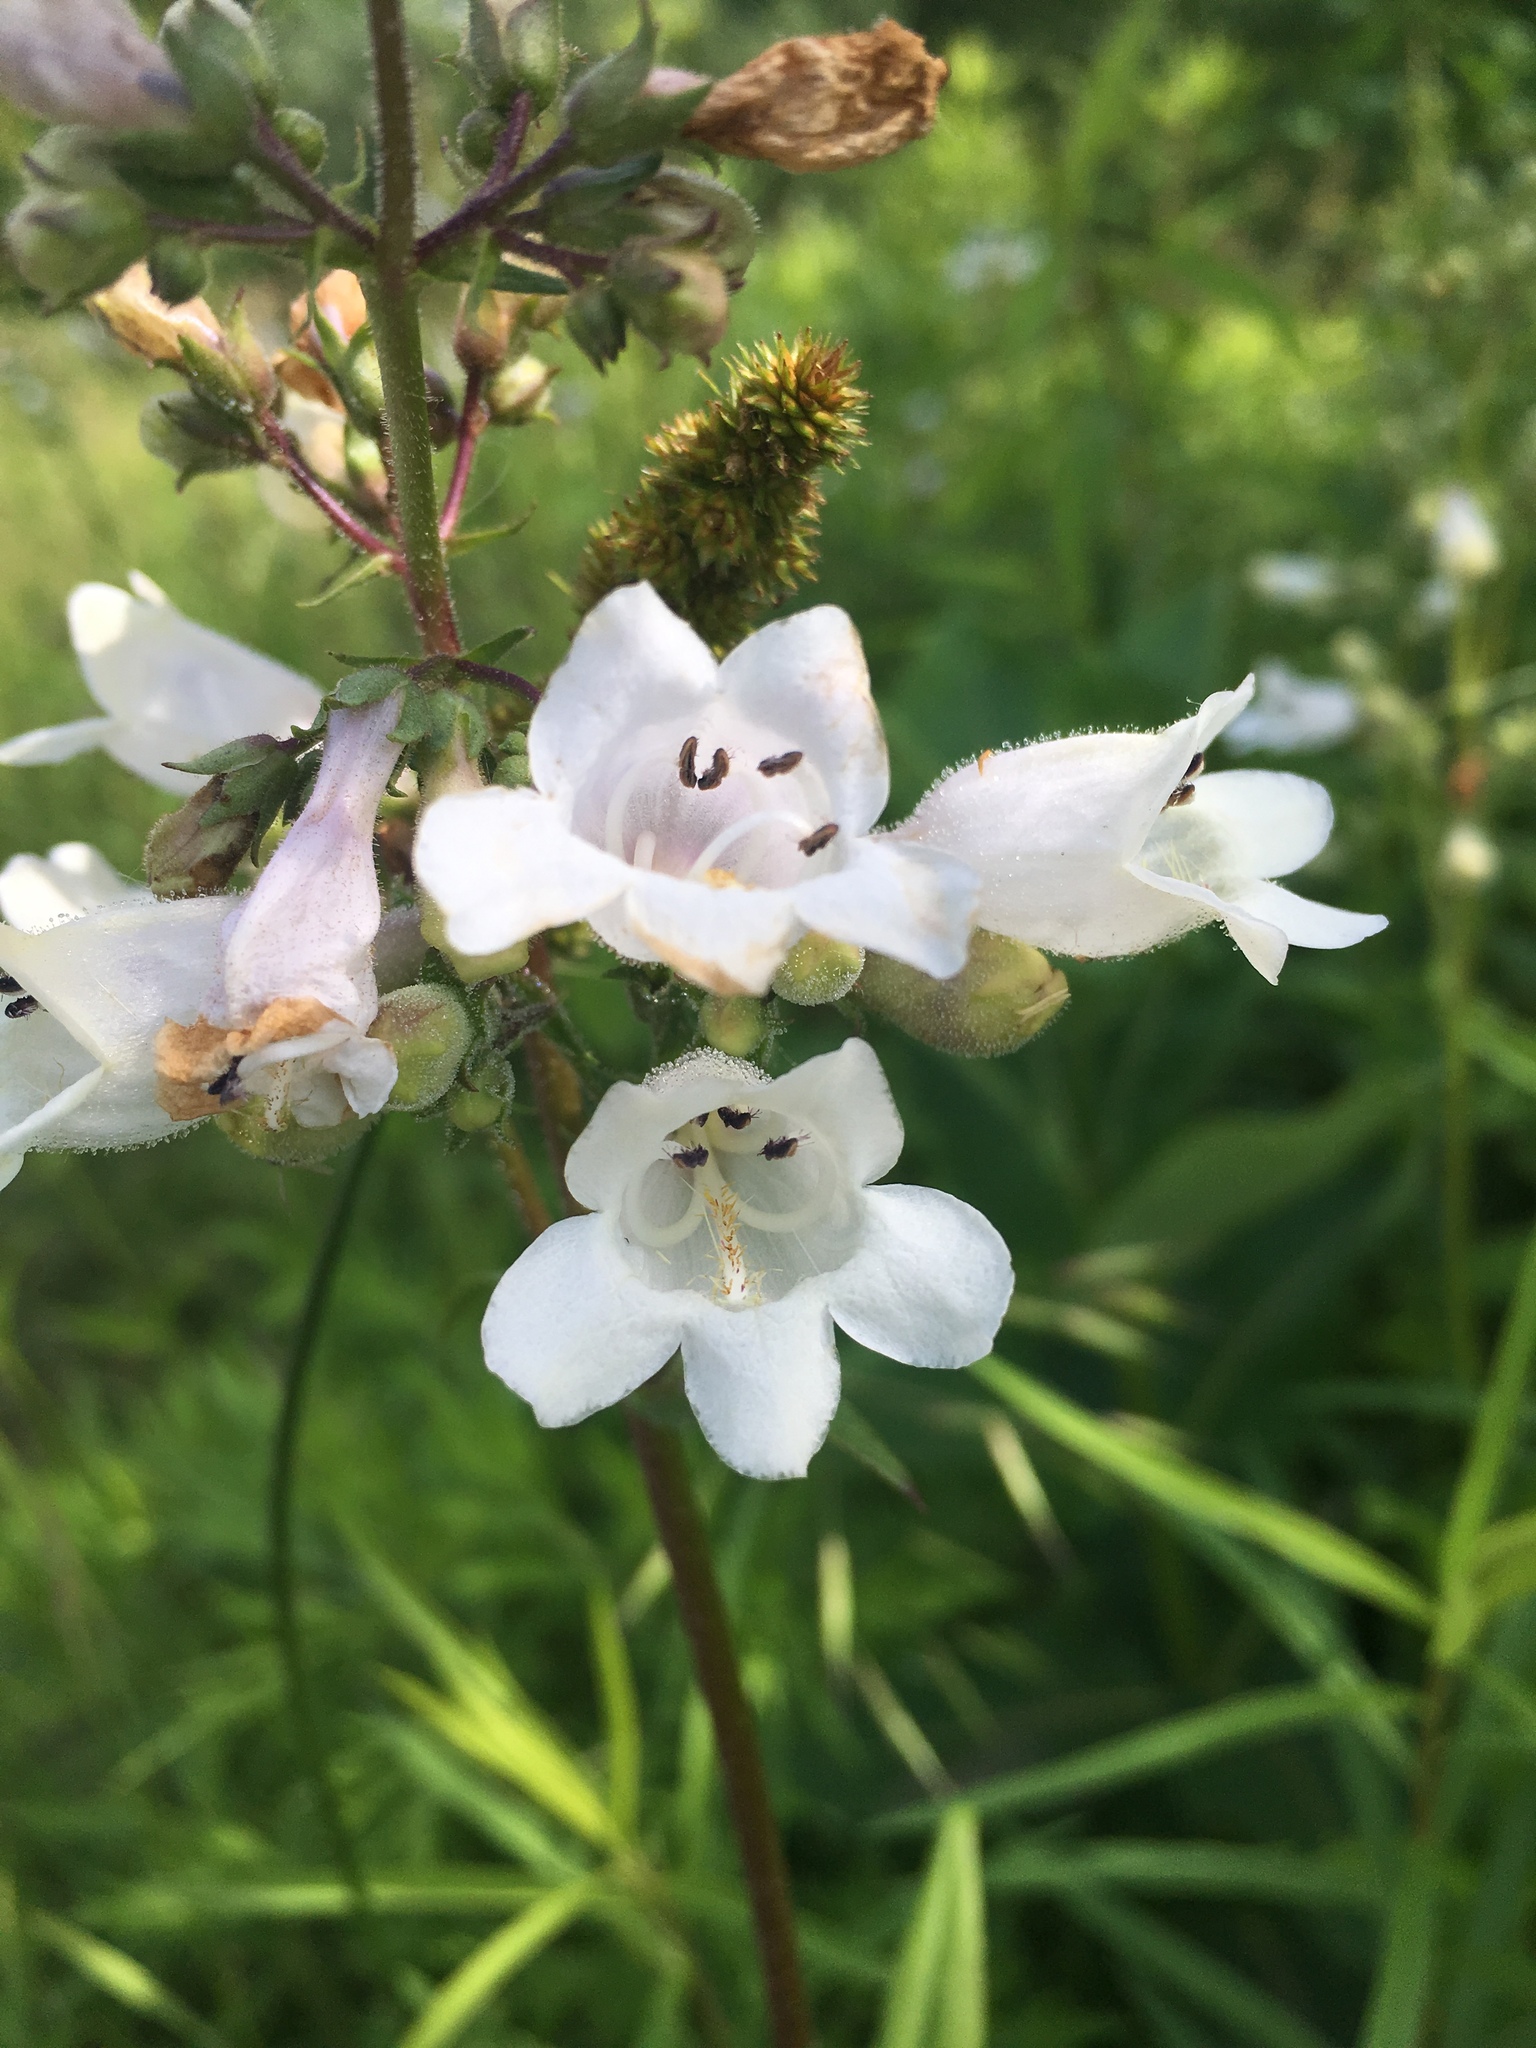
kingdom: Plantae
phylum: Tracheophyta
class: Magnoliopsida
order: Lamiales
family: Plantaginaceae
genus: Penstemon
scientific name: Penstemon digitalis
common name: Foxglove beardtongue
